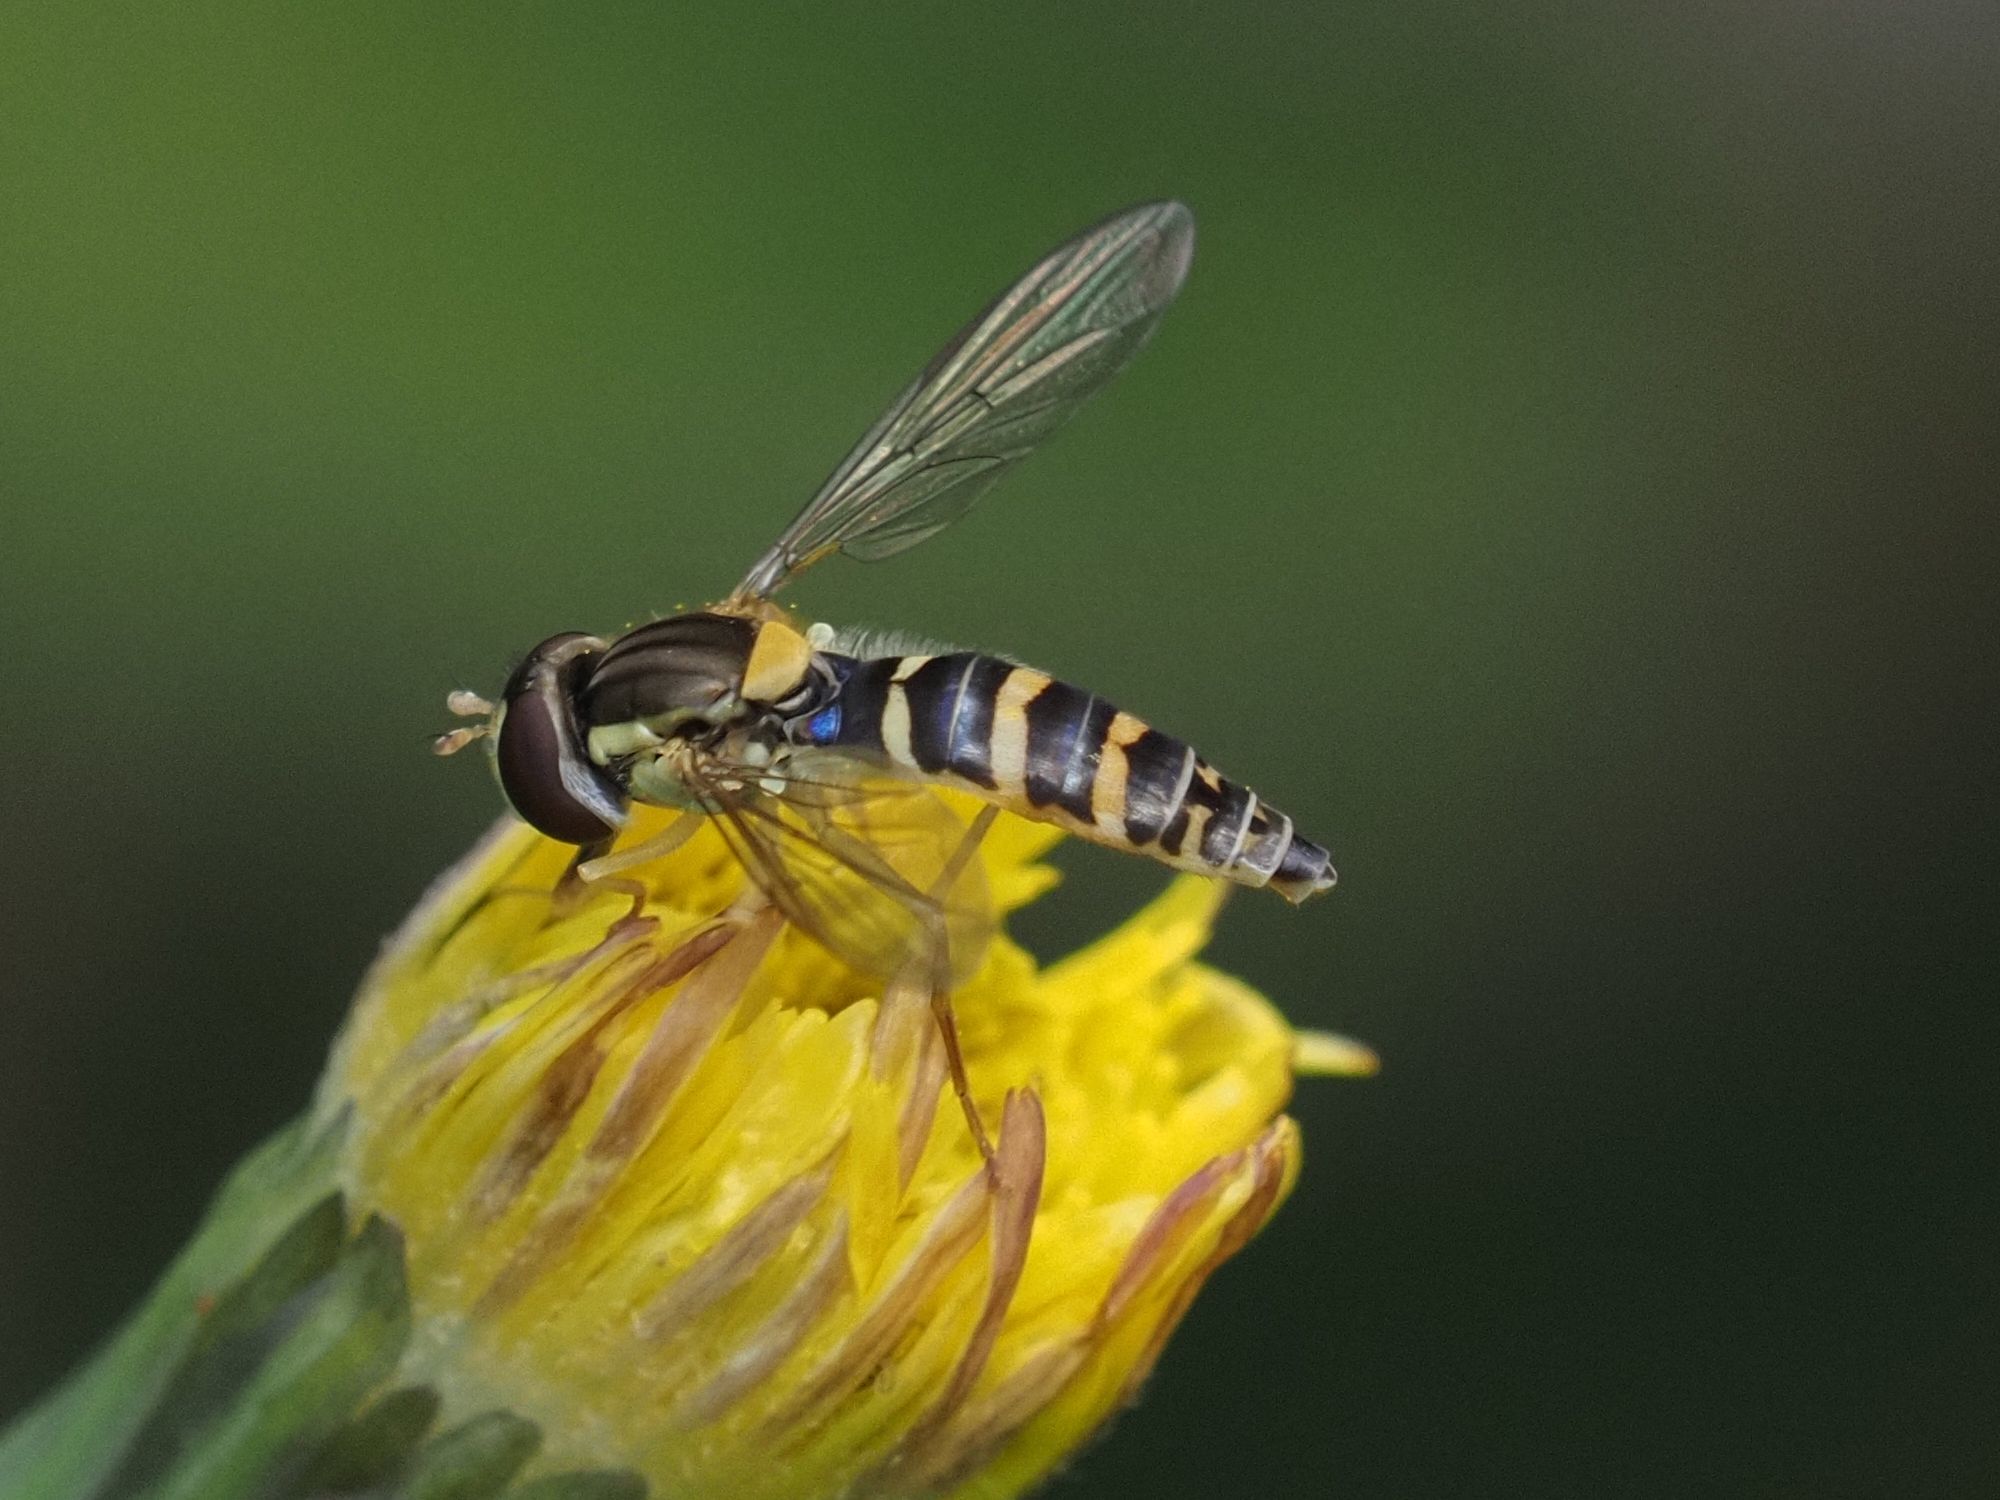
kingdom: Animalia
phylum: Arthropoda
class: Insecta
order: Diptera
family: Syrphidae
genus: Sphaerophoria
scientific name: Sphaerophoria
